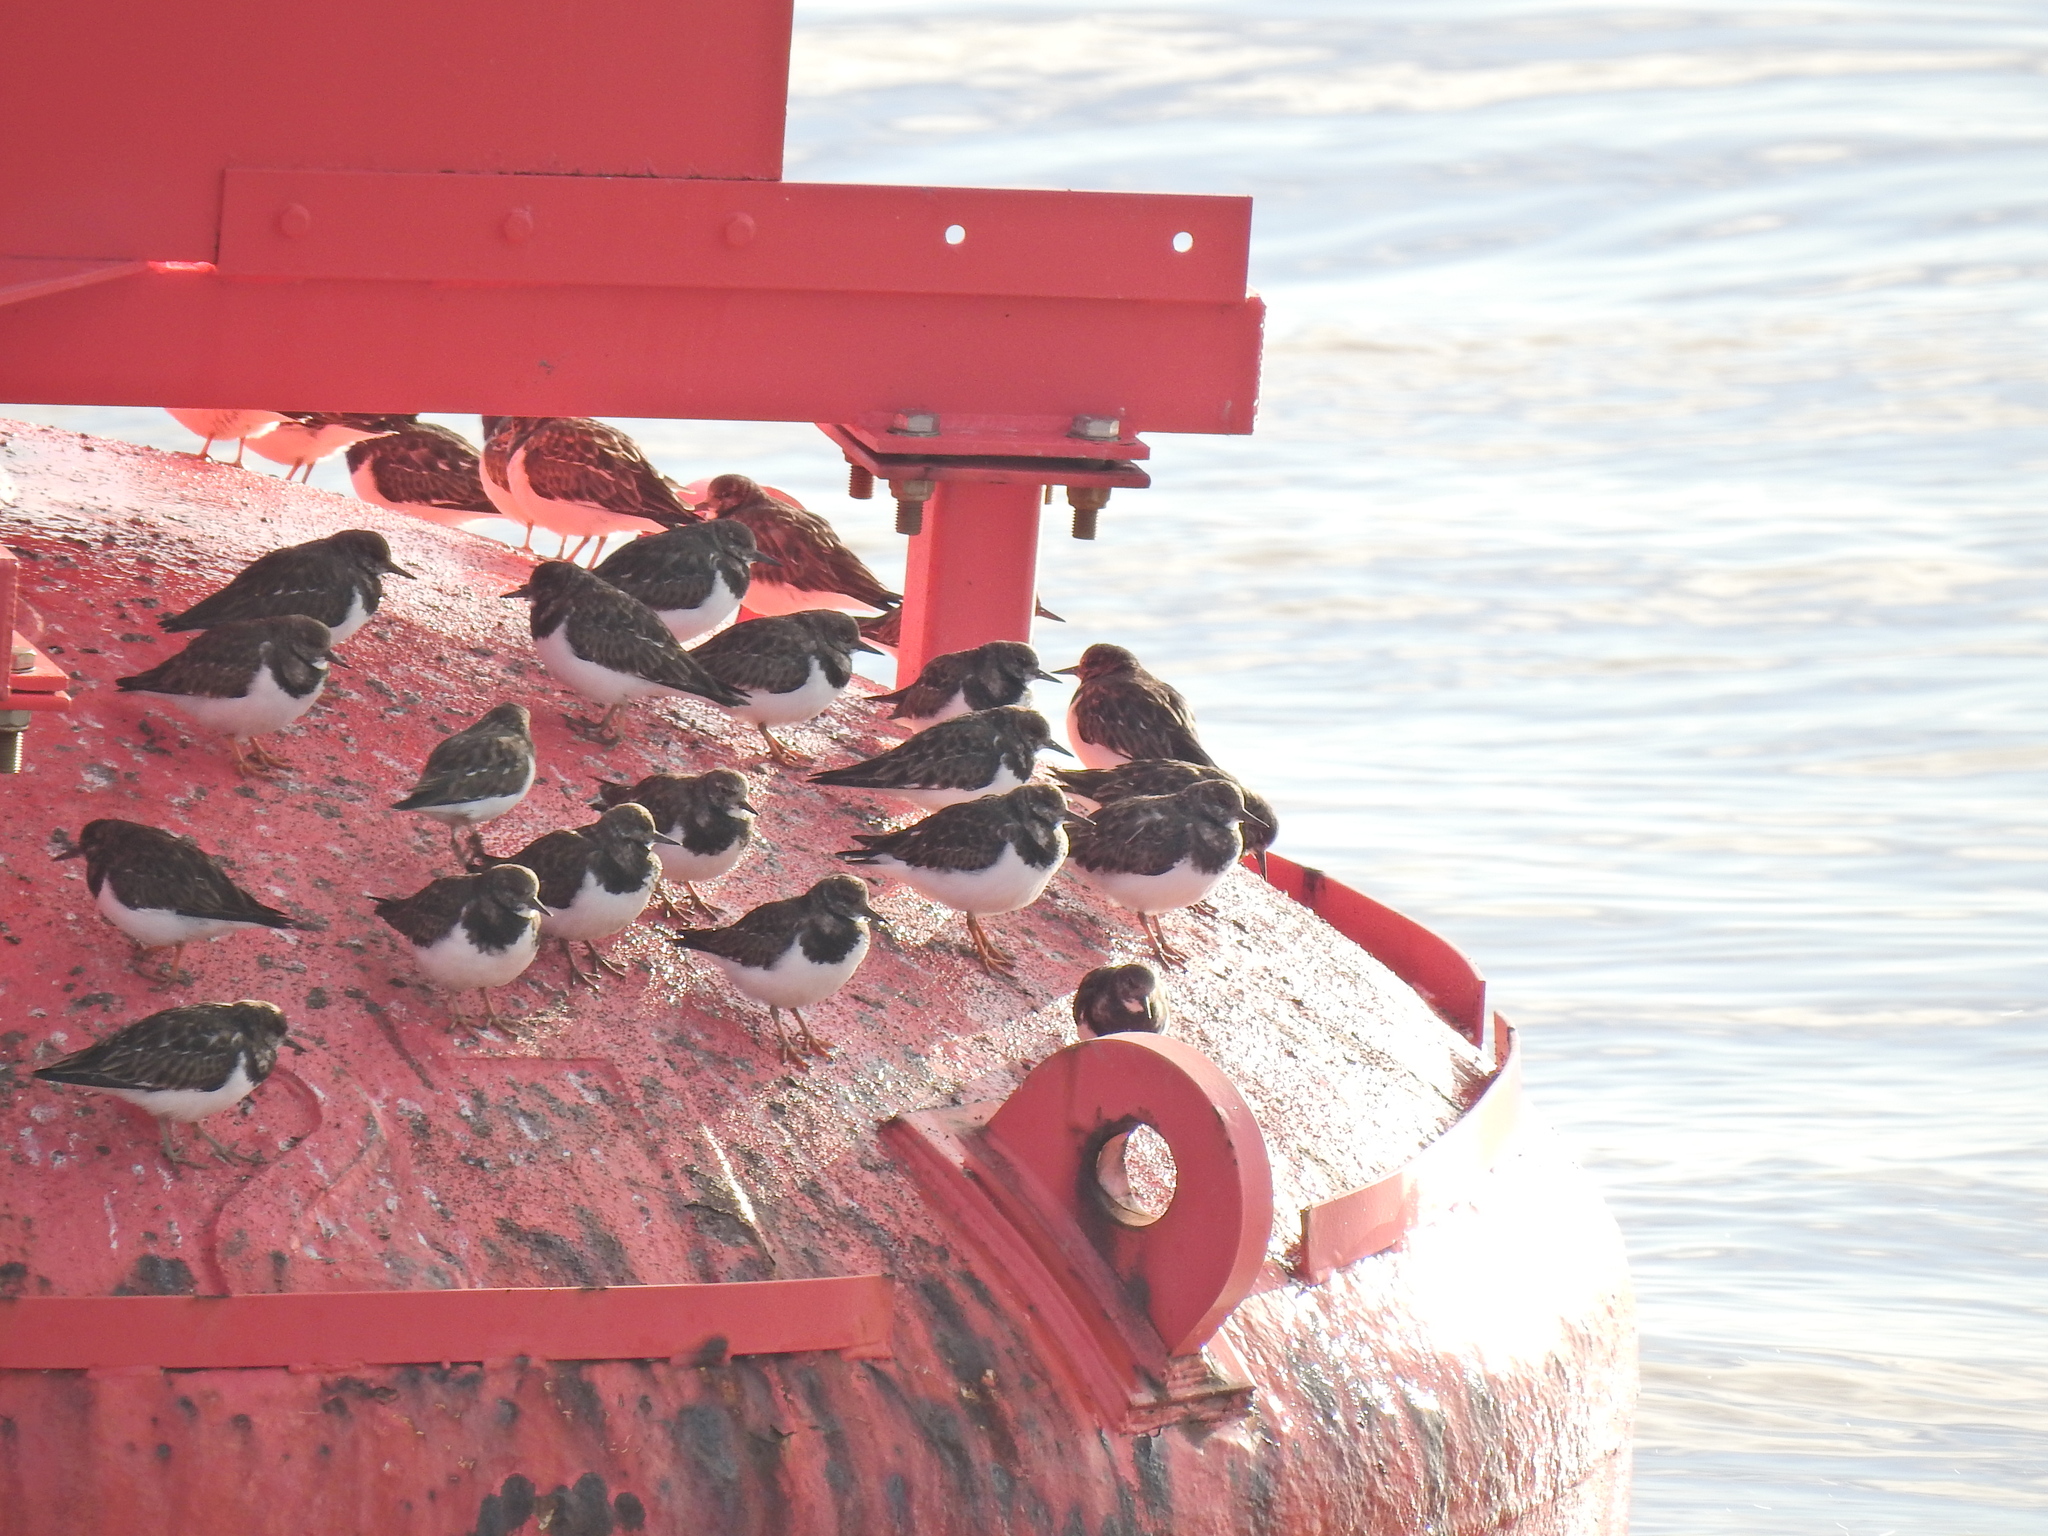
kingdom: Animalia
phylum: Chordata
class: Aves
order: Charadriiformes
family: Scolopacidae
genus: Arenaria
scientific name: Arenaria interpres
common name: Ruddy turnstone
